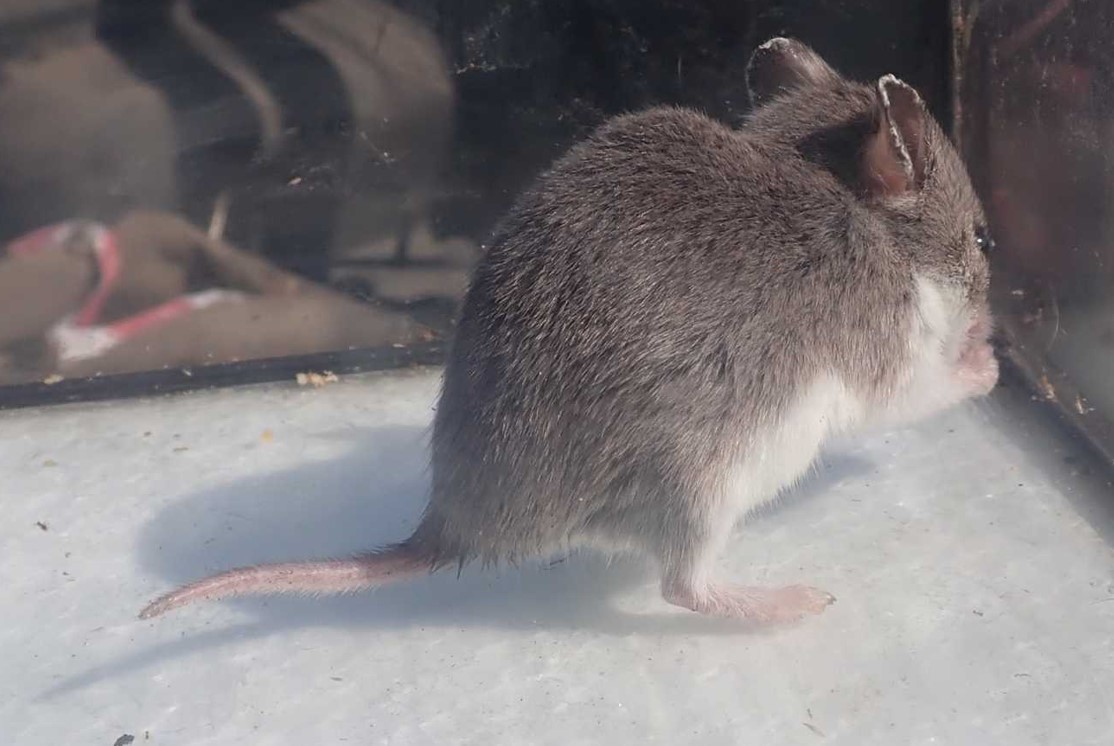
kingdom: Animalia
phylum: Chordata
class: Mammalia
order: Rodentia
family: Nesomyidae
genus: Saccostomus
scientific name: Saccostomus campestris
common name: Southern african pouched mouse
